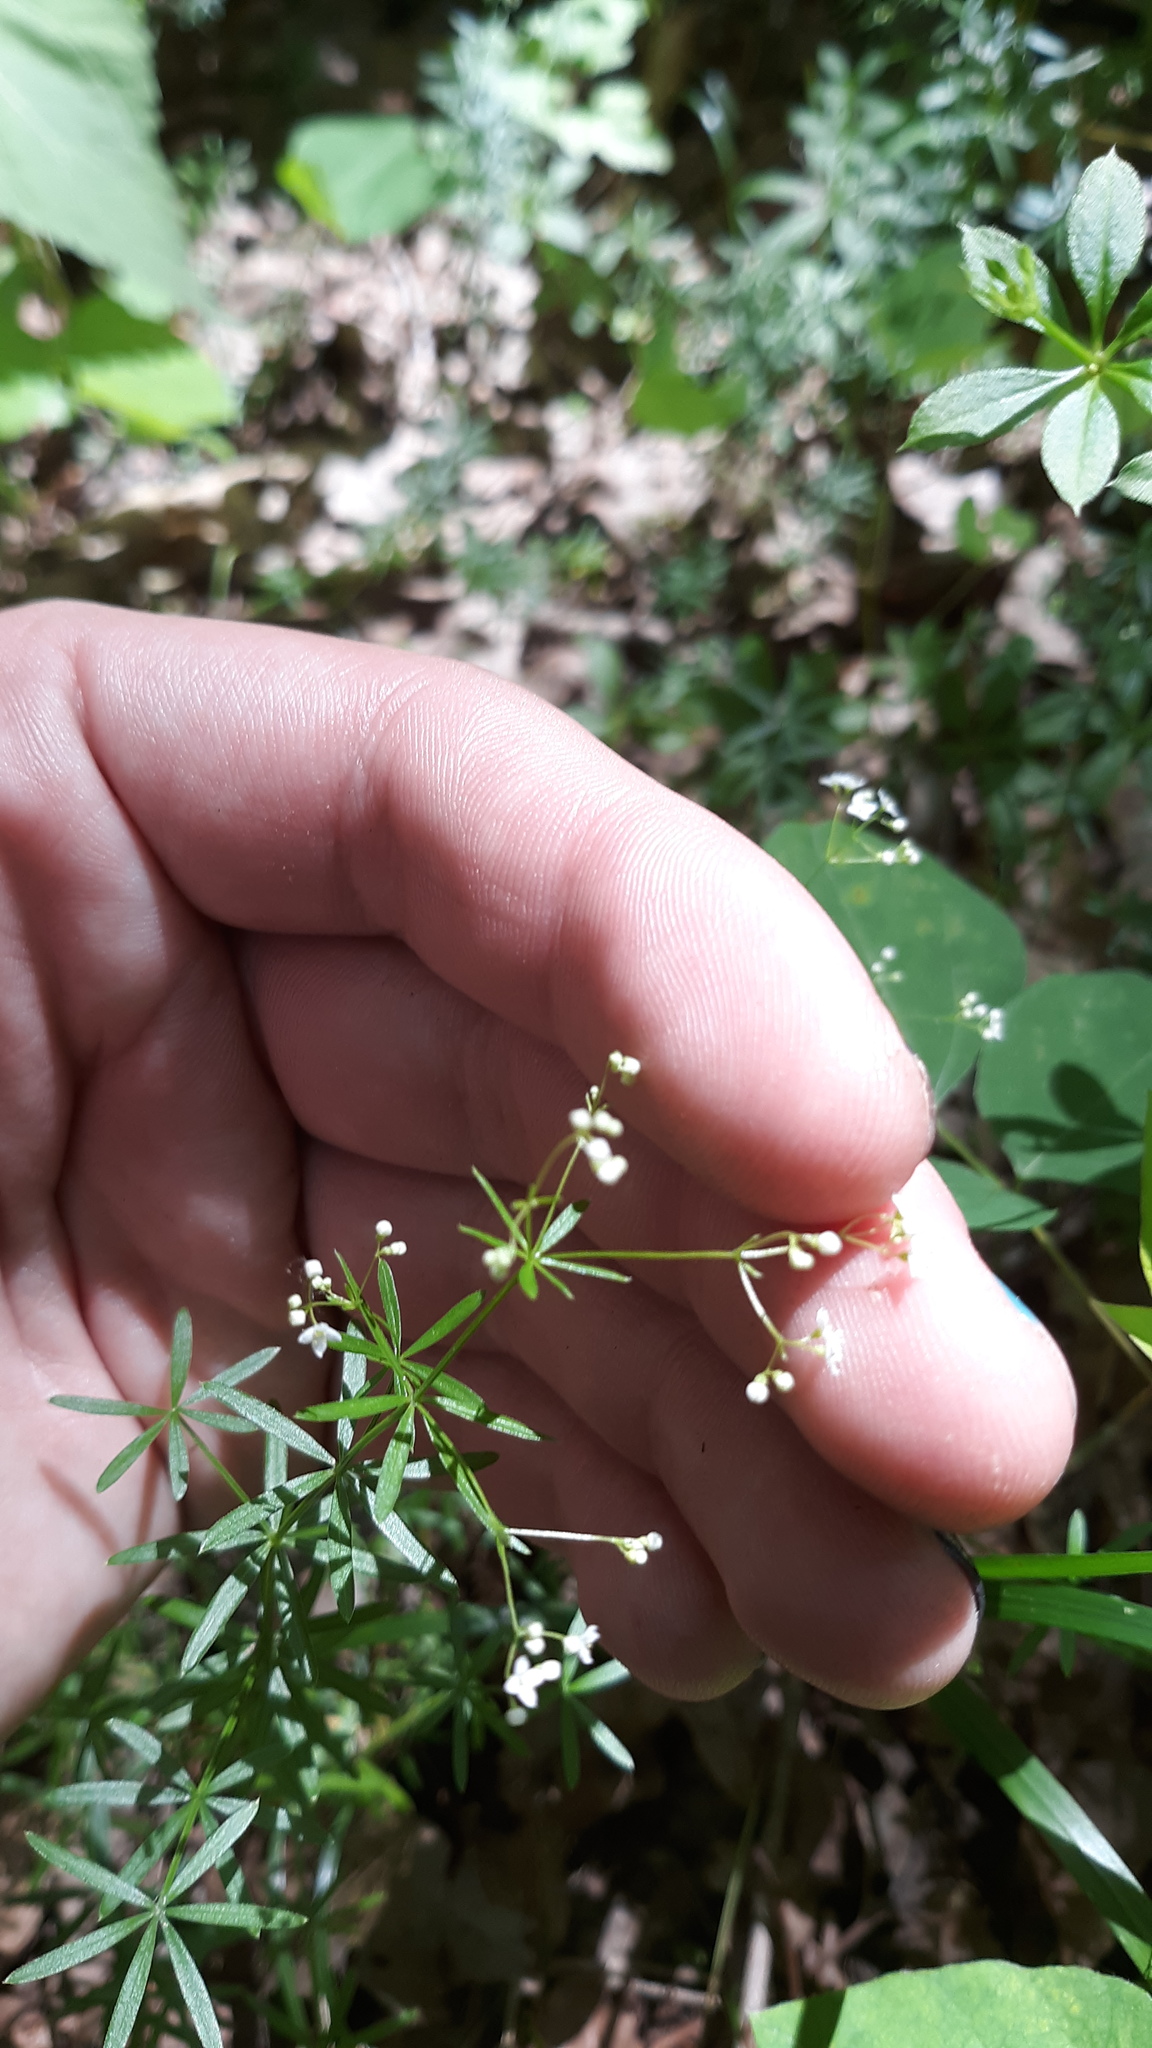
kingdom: Plantae
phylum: Tracheophyta
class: Magnoliopsida
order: Gentianales
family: Rubiaceae
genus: Galium
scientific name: Galium concinnum
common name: Shining bedstraw
